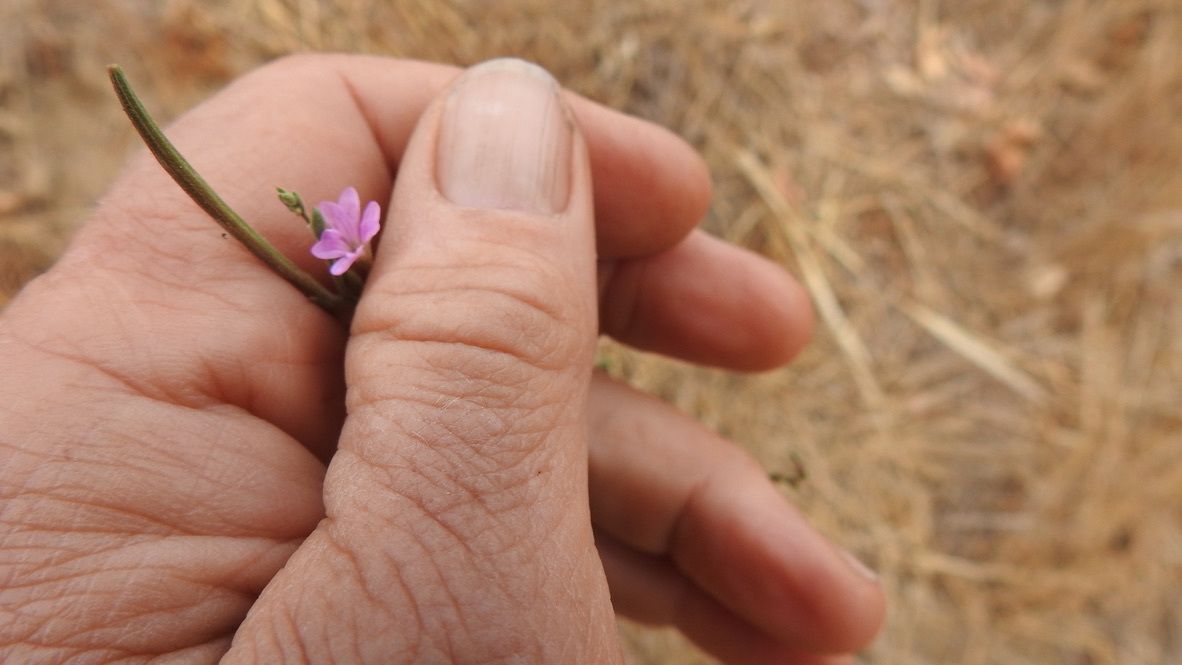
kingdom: Plantae
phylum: Tracheophyta
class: Magnoliopsida
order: Myrtales
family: Onagraceae
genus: Epilobium
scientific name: Epilobium brachycarpum
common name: Annual willowherb
